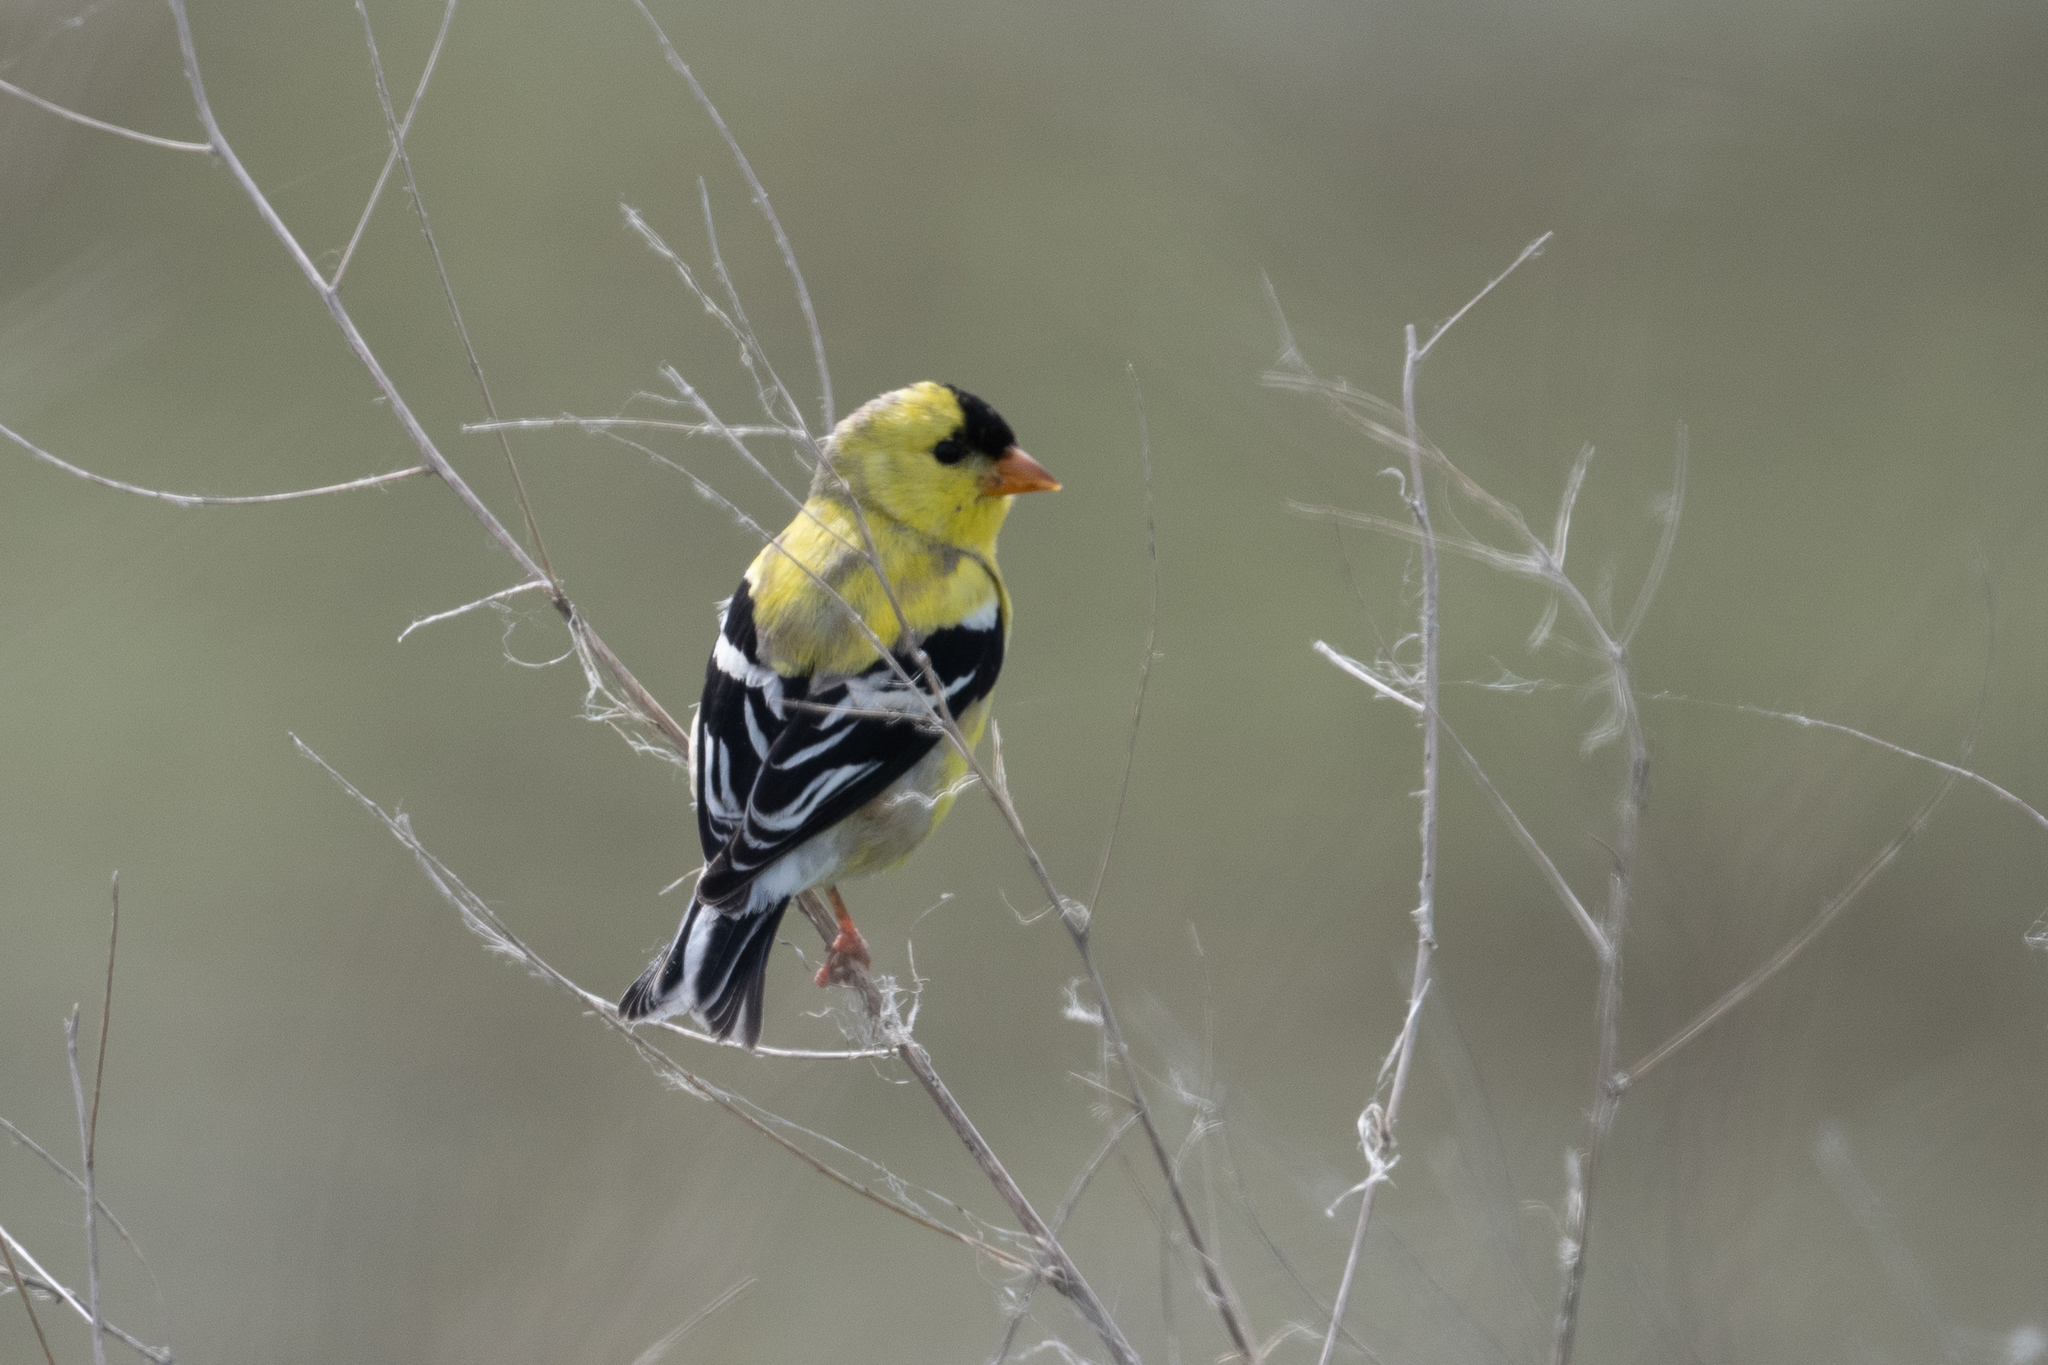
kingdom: Animalia
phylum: Chordata
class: Aves
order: Passeriformes
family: Fringillidae
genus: Spinus
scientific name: Spinus tristis
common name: American goldfinch
